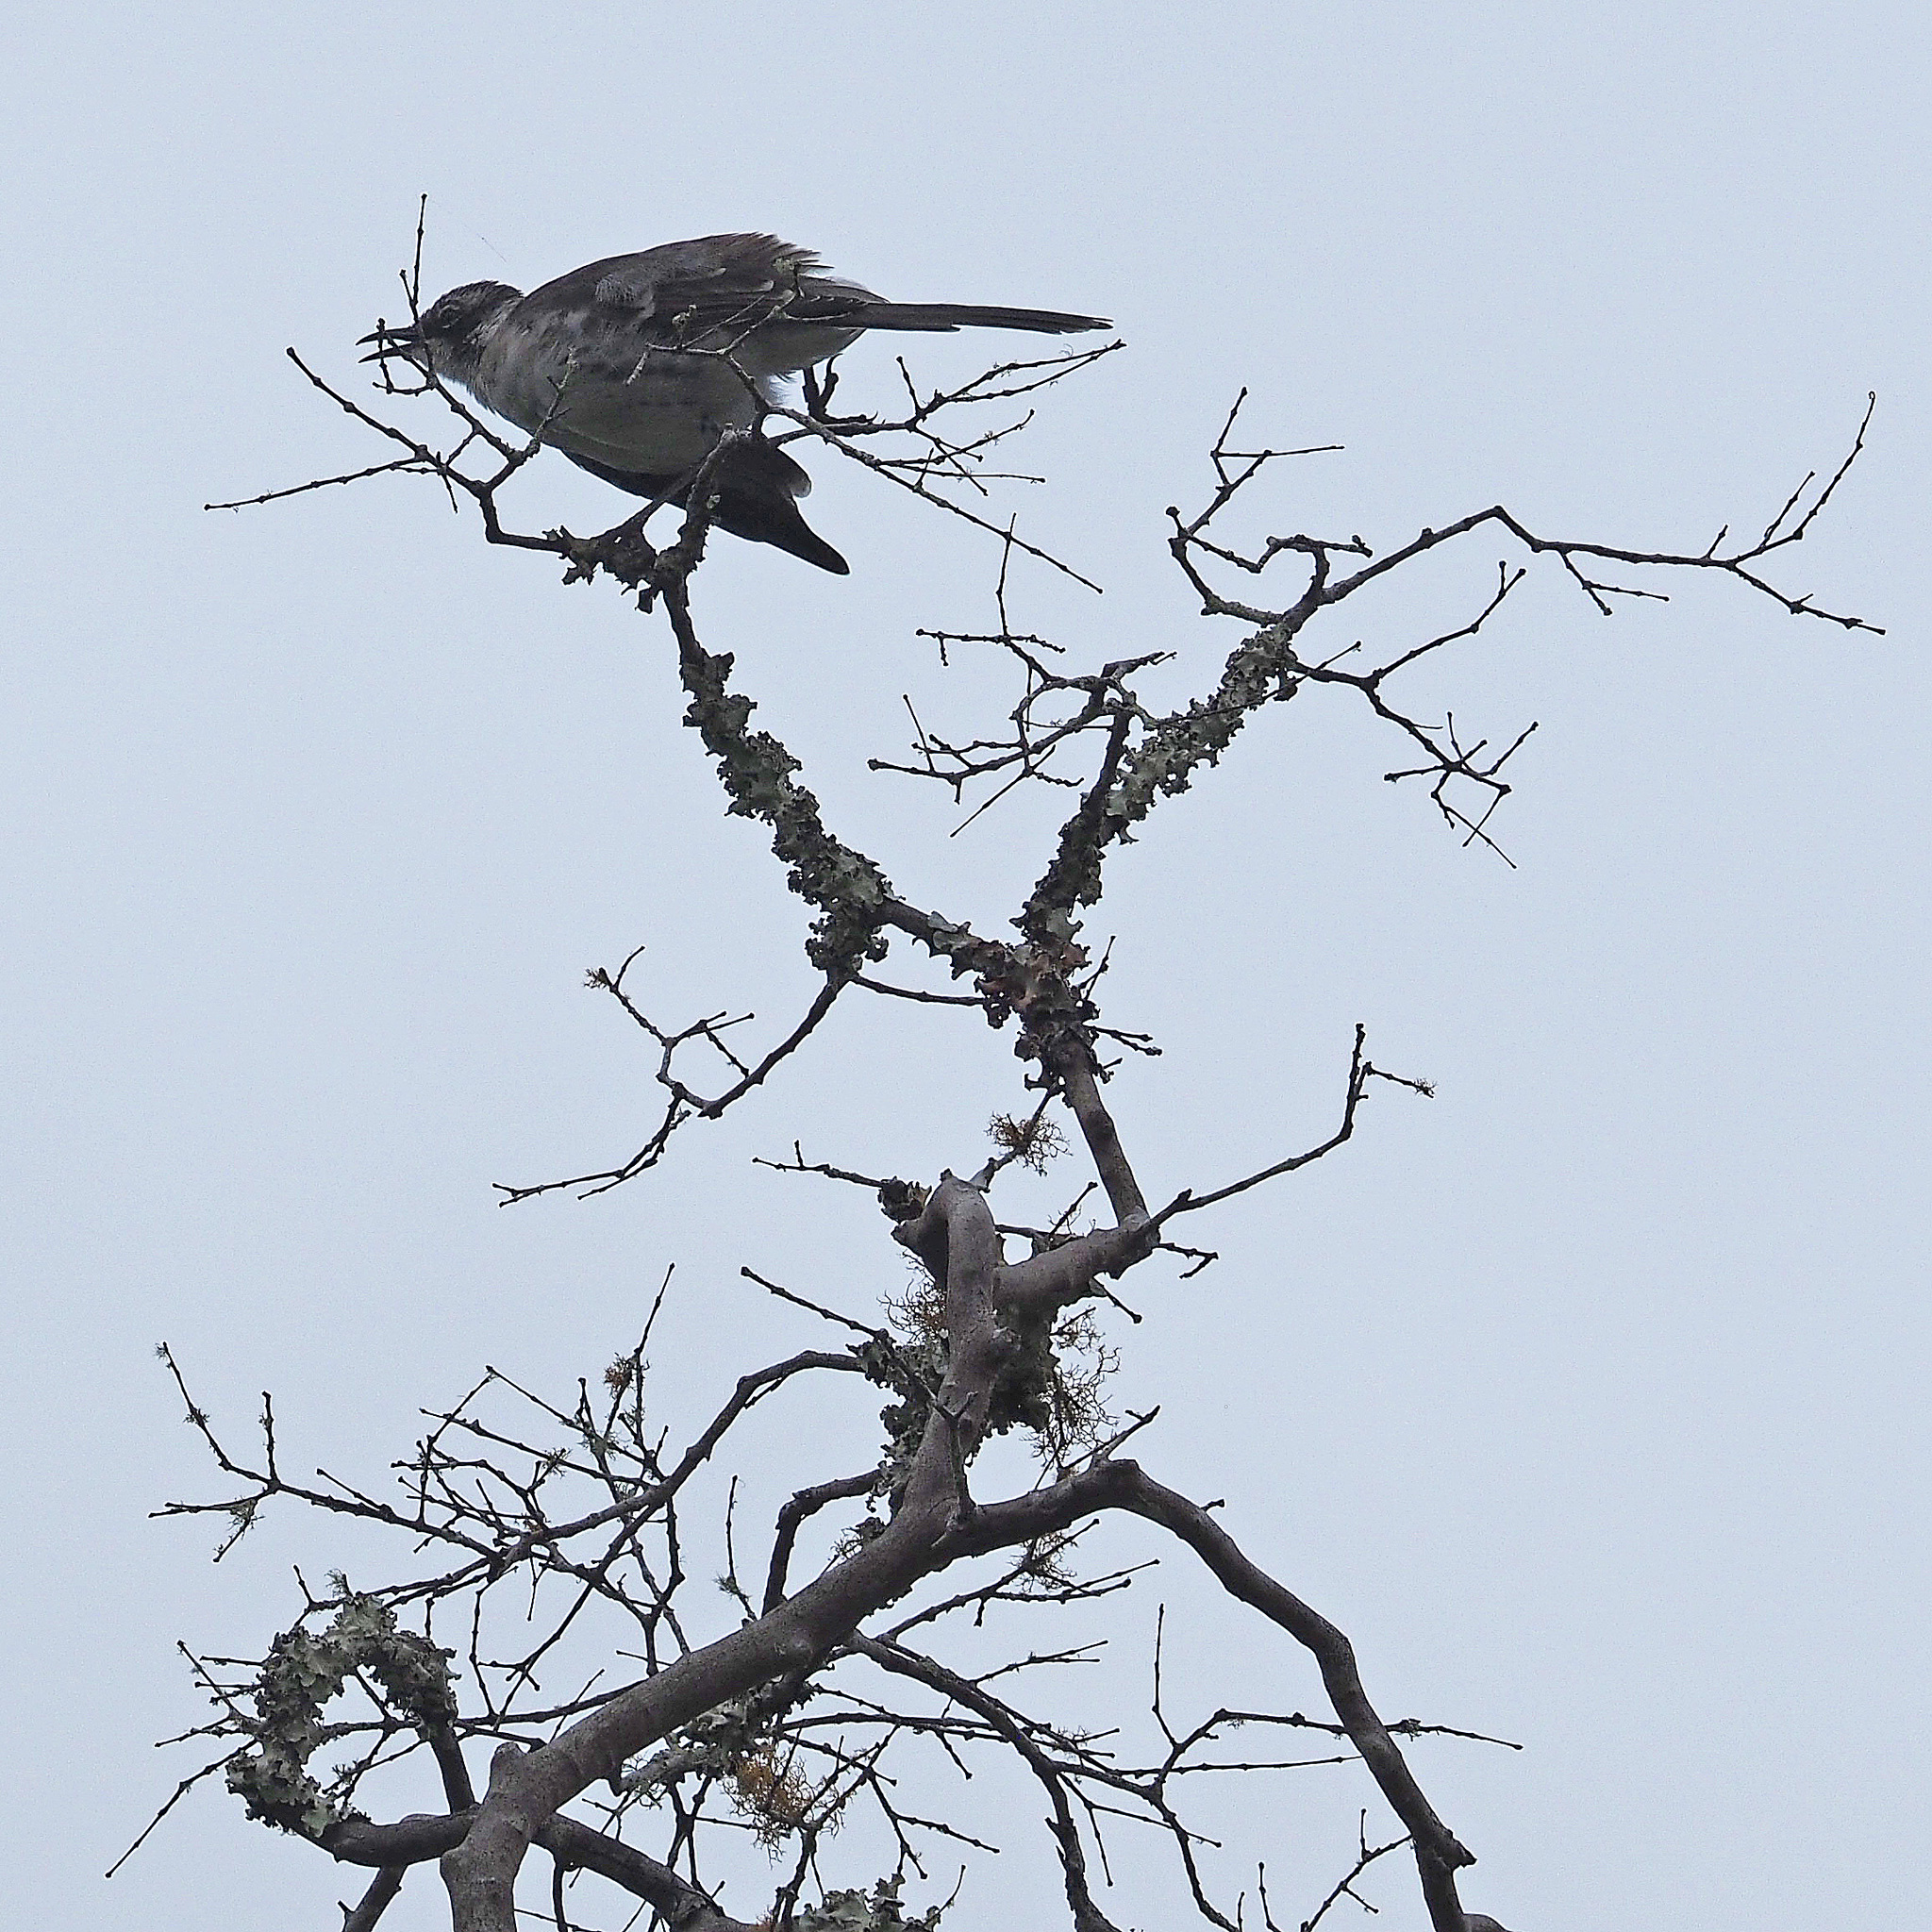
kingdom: Animalia
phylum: Chordata
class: Aves
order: Passeriformes
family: Mimidae
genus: Mimus
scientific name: Mimus parvulus
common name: Galapagos mockingbird
